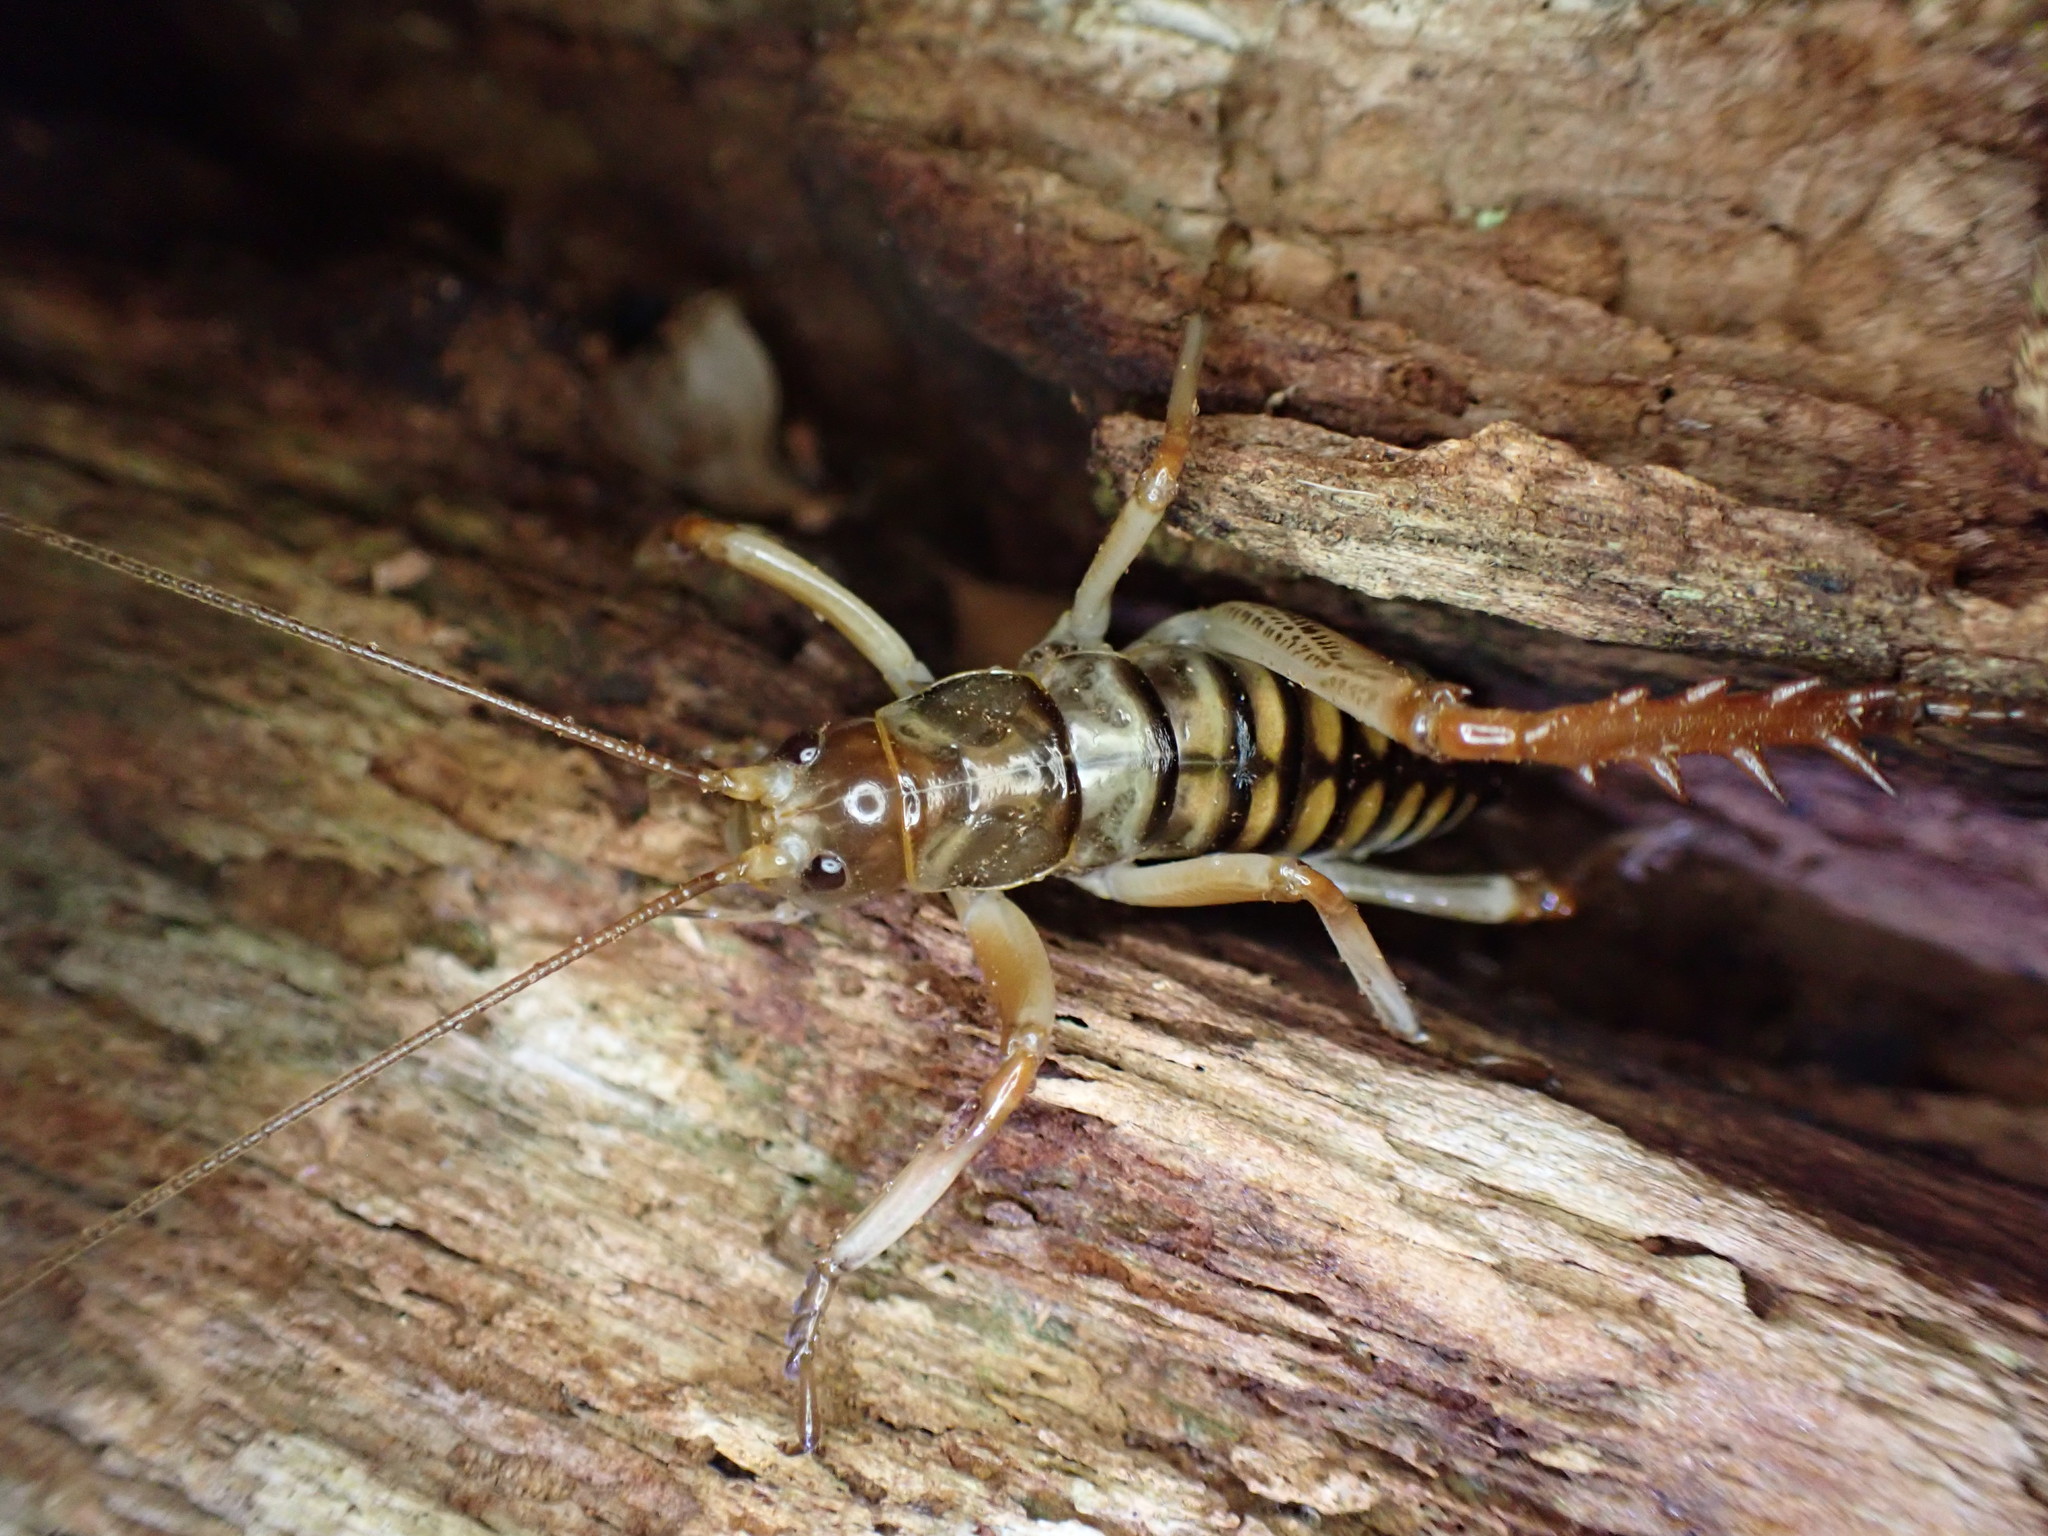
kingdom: Animalia
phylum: Arthropoda
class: Insecta
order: Orthoptera
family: Anostostomatidae
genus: Hemideina
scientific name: Hemideina crassidens
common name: Wellington tree weta
